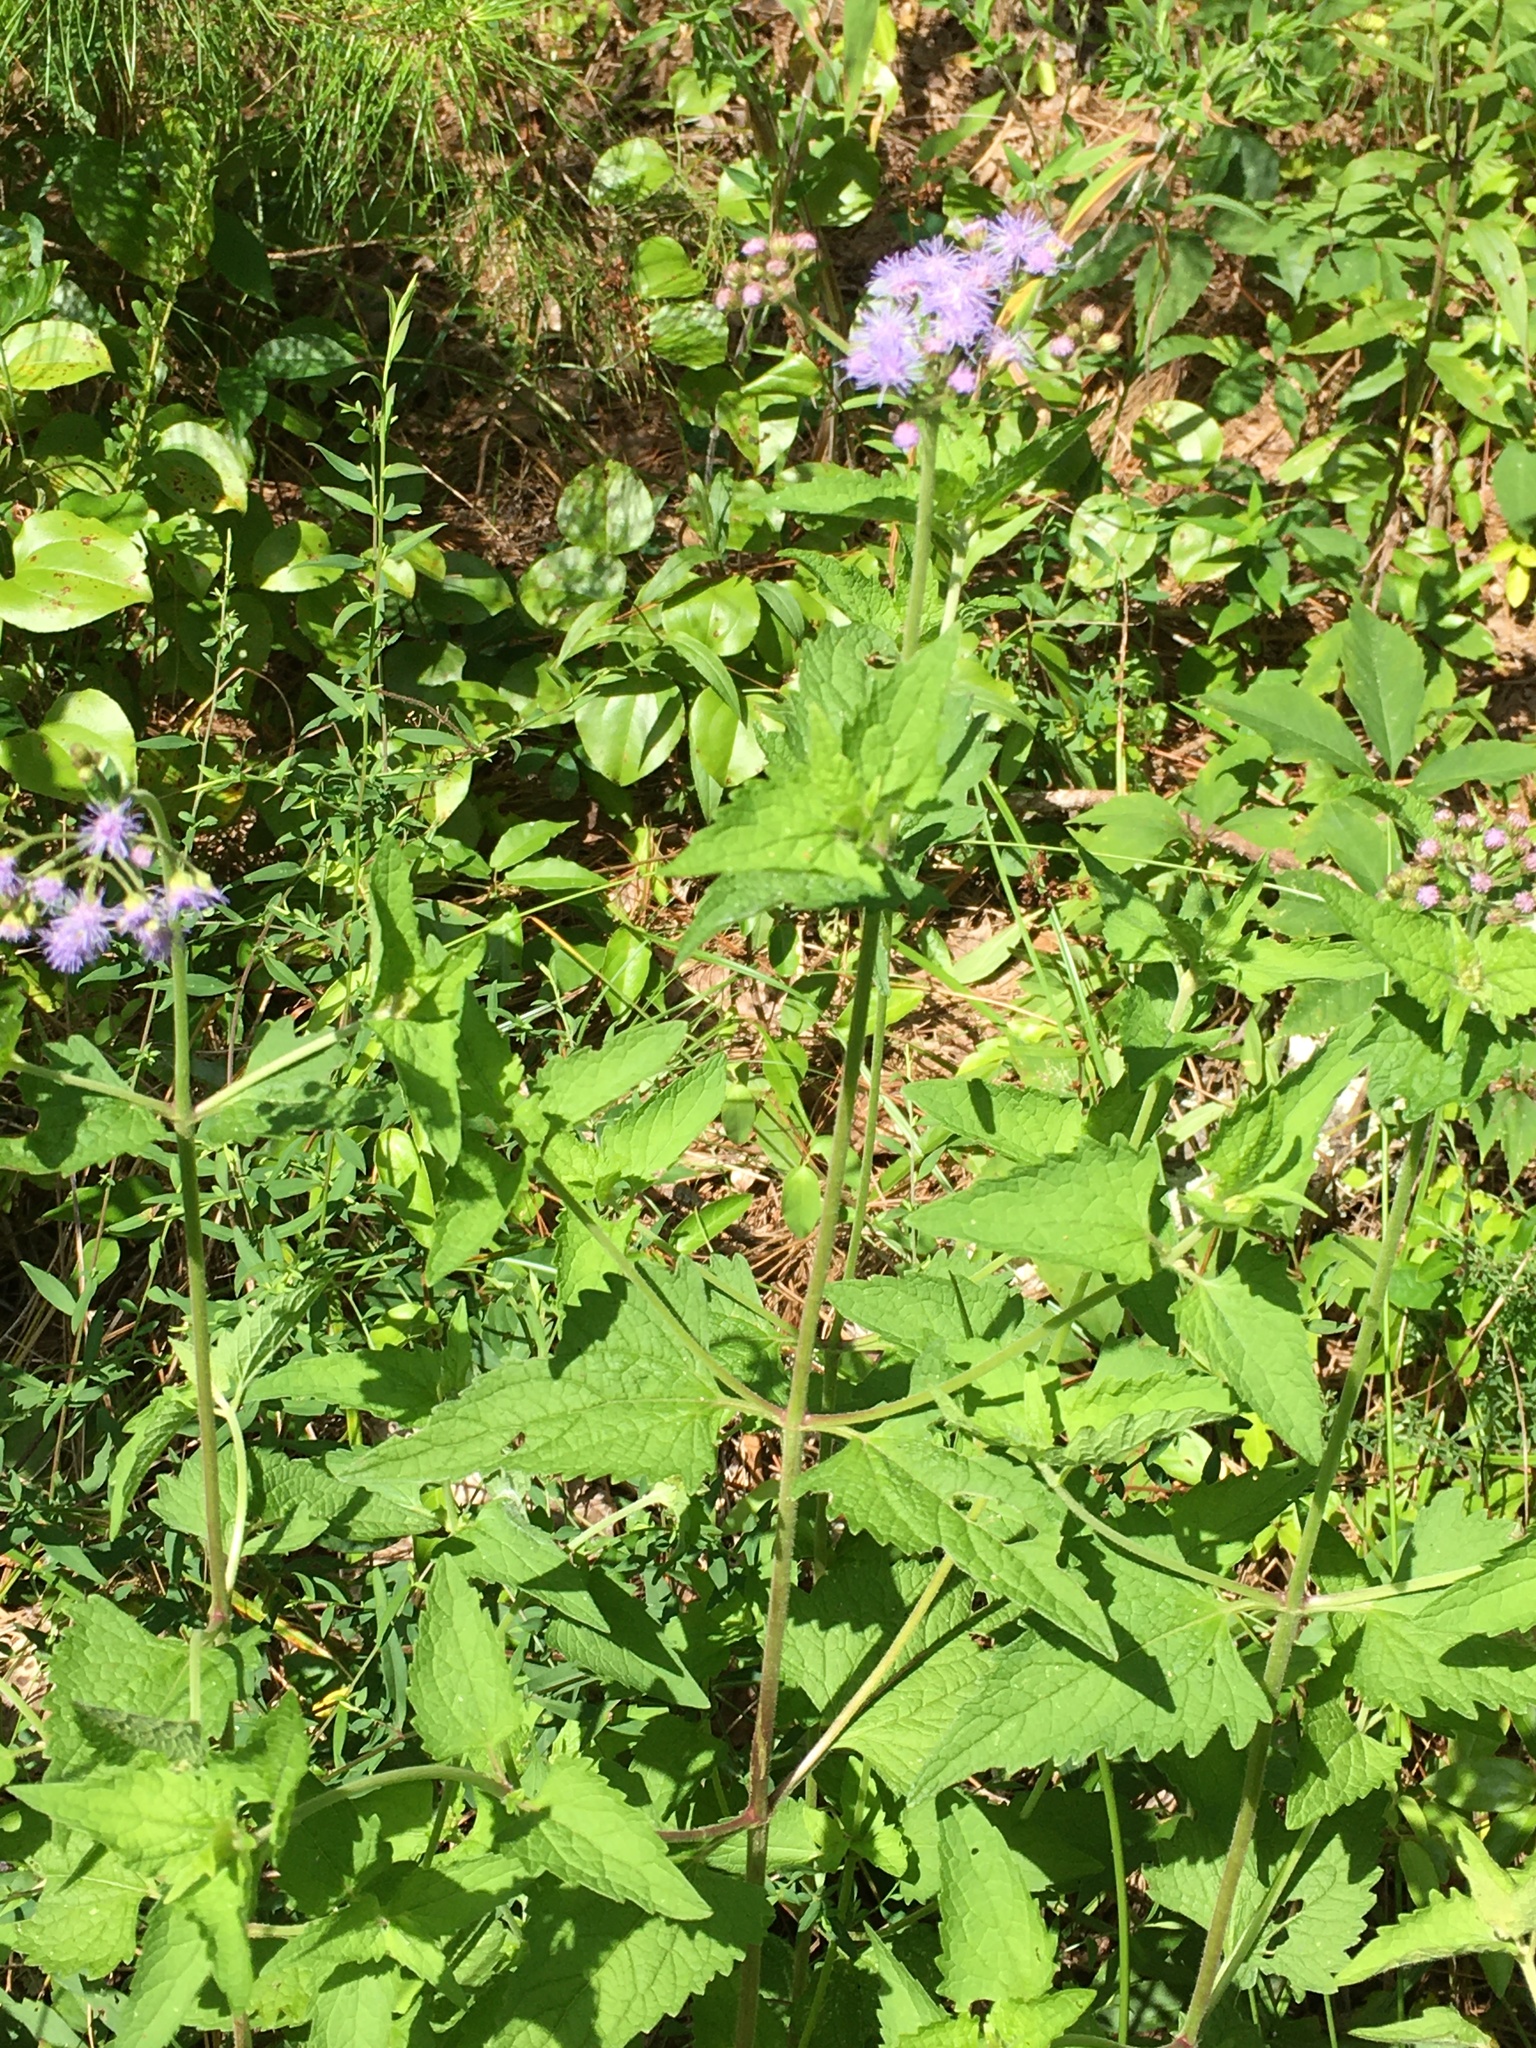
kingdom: Plantae
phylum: Tracheophyta
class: Magnoliopsida
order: Asterales
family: Asteraceae
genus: Conoclinium
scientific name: Conoclinium coelestinum
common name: Blue mistflower
